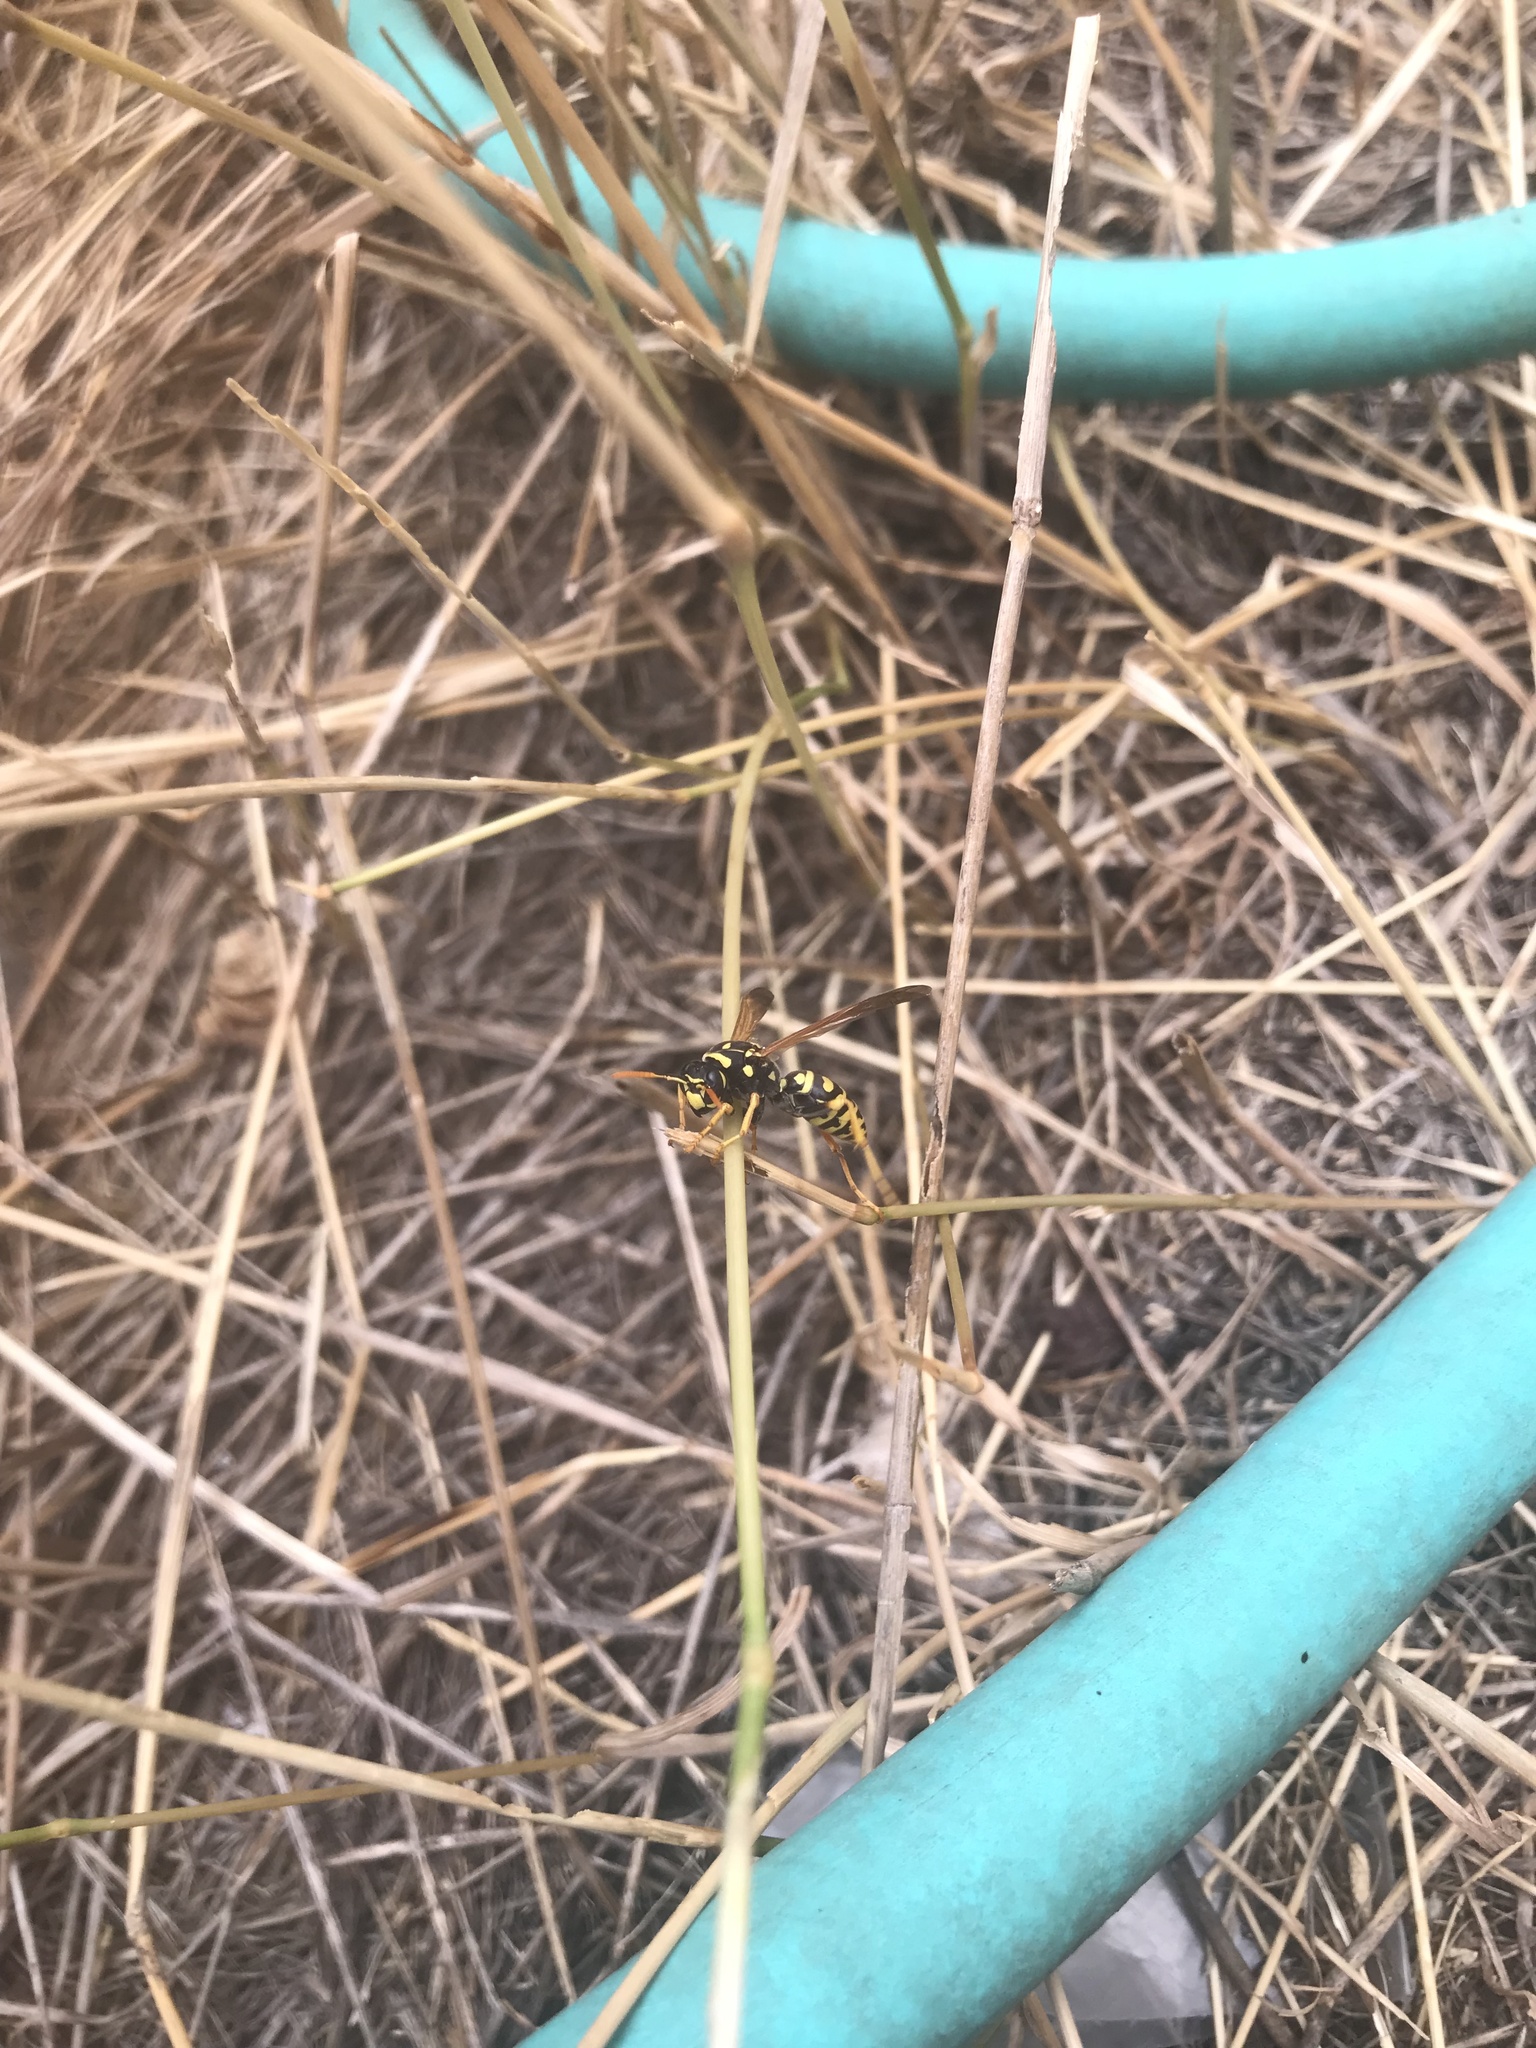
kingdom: Animalia
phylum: Arthropoda
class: Insecta
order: Hymenoptera
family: Eumenidae
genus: Polistes
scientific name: Polistes dominula
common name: Paper wasp
